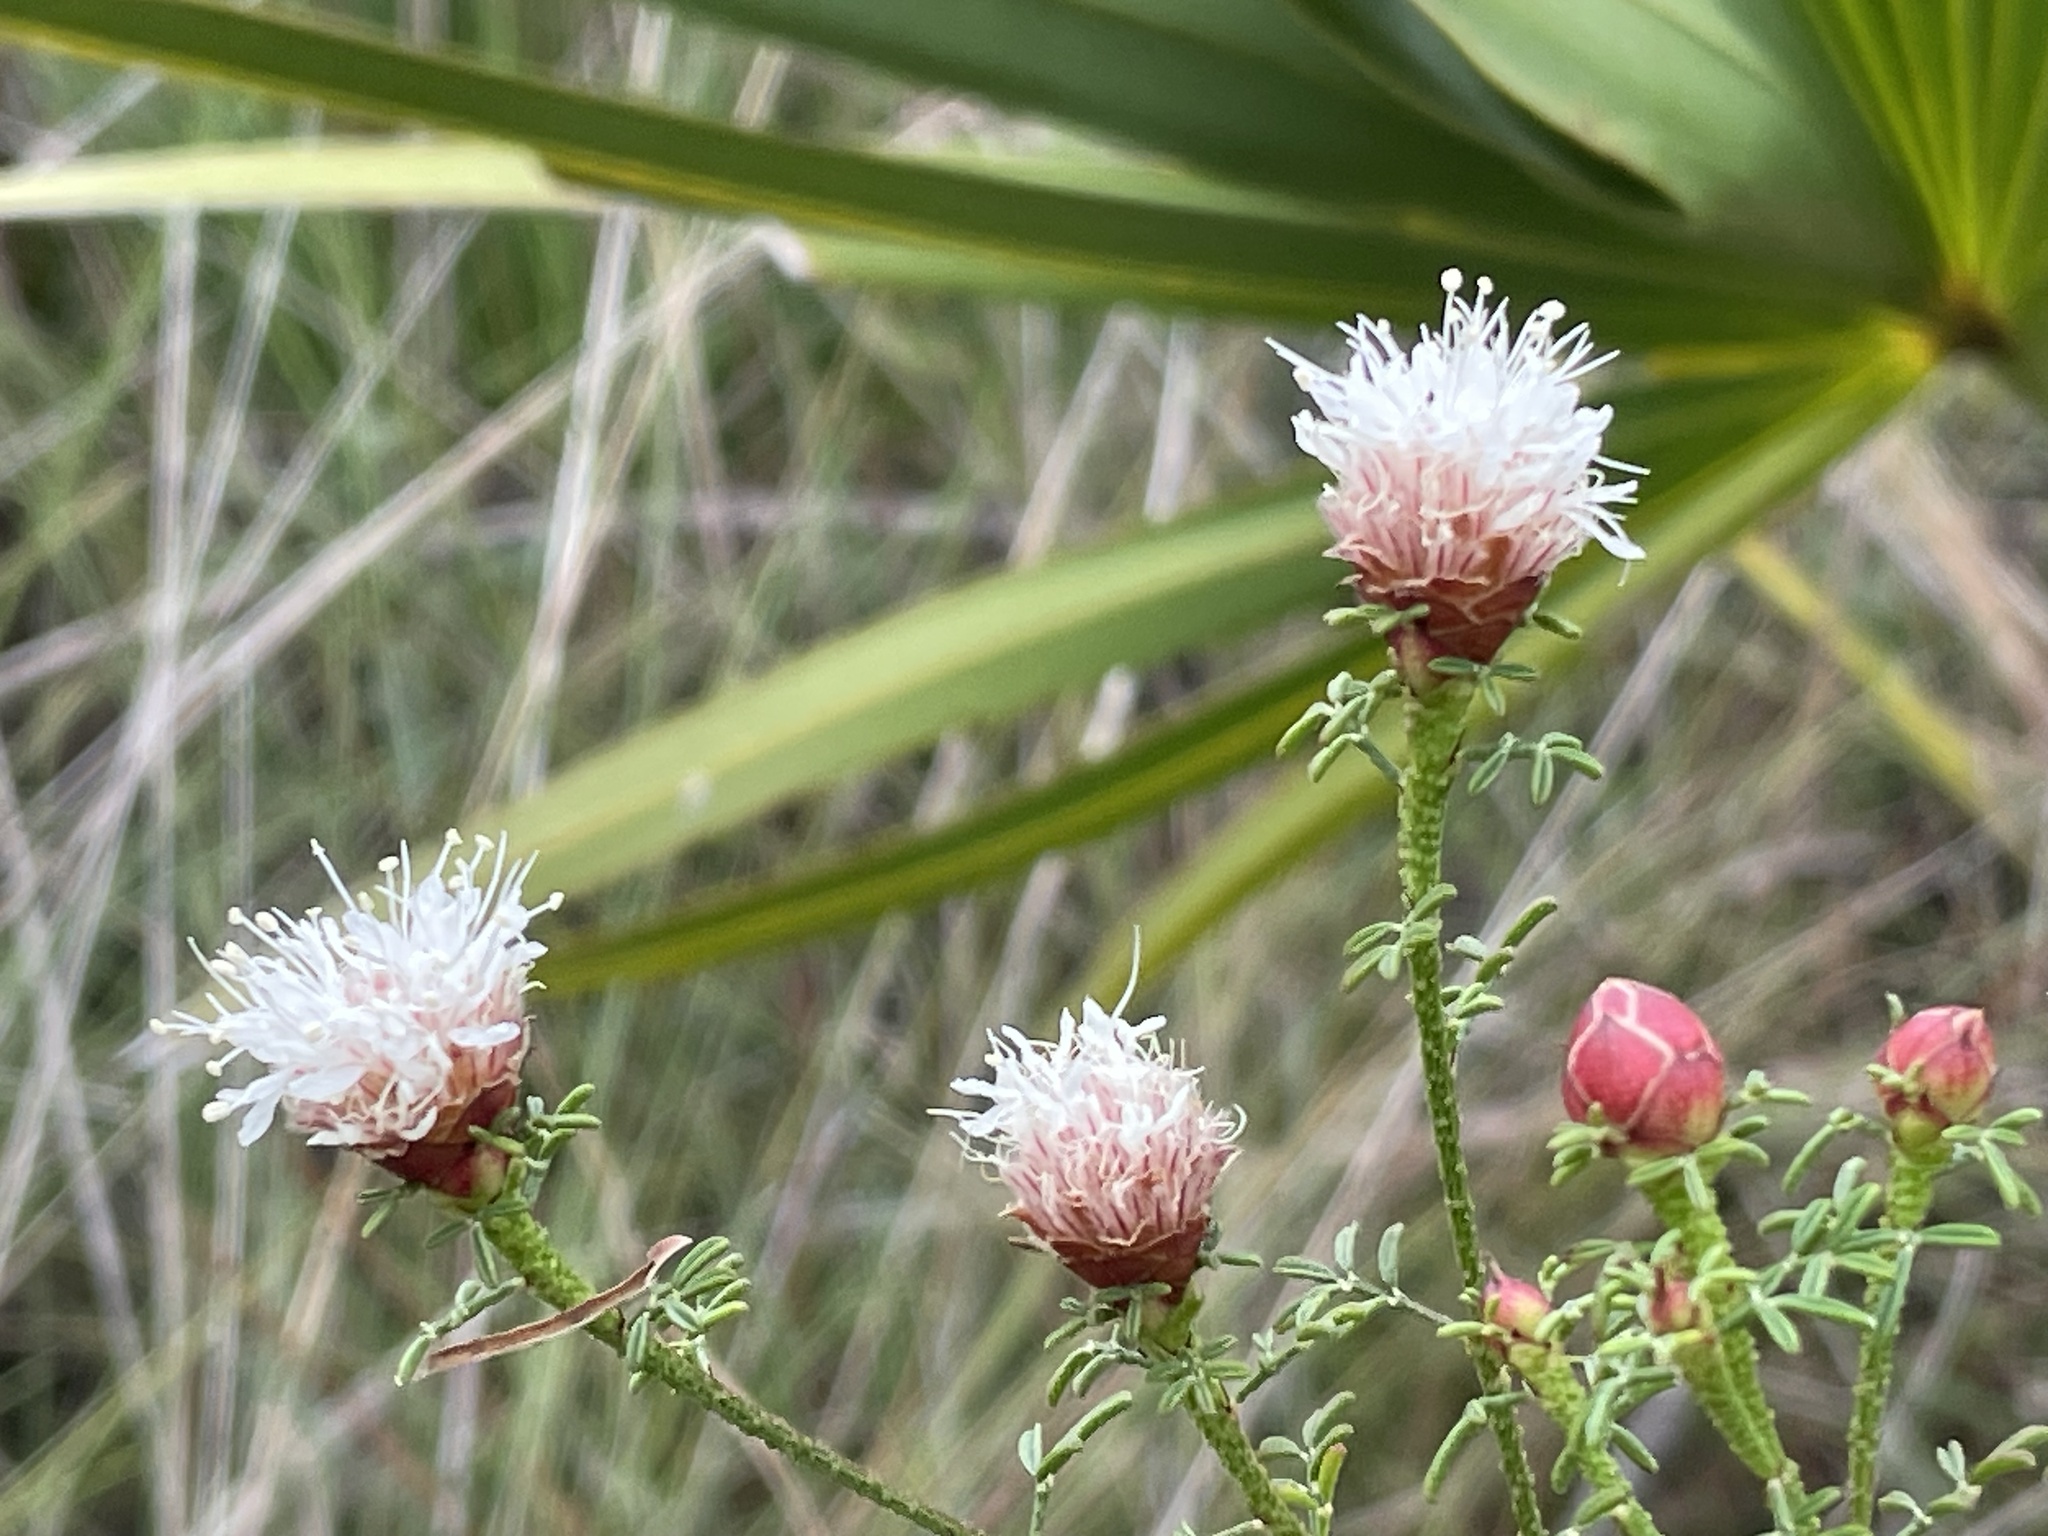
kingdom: Plantae
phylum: Tracheophyta
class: Magnoliopsida
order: Fabales
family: Fabaceae
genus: Dalea
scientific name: Dalea pinnata
